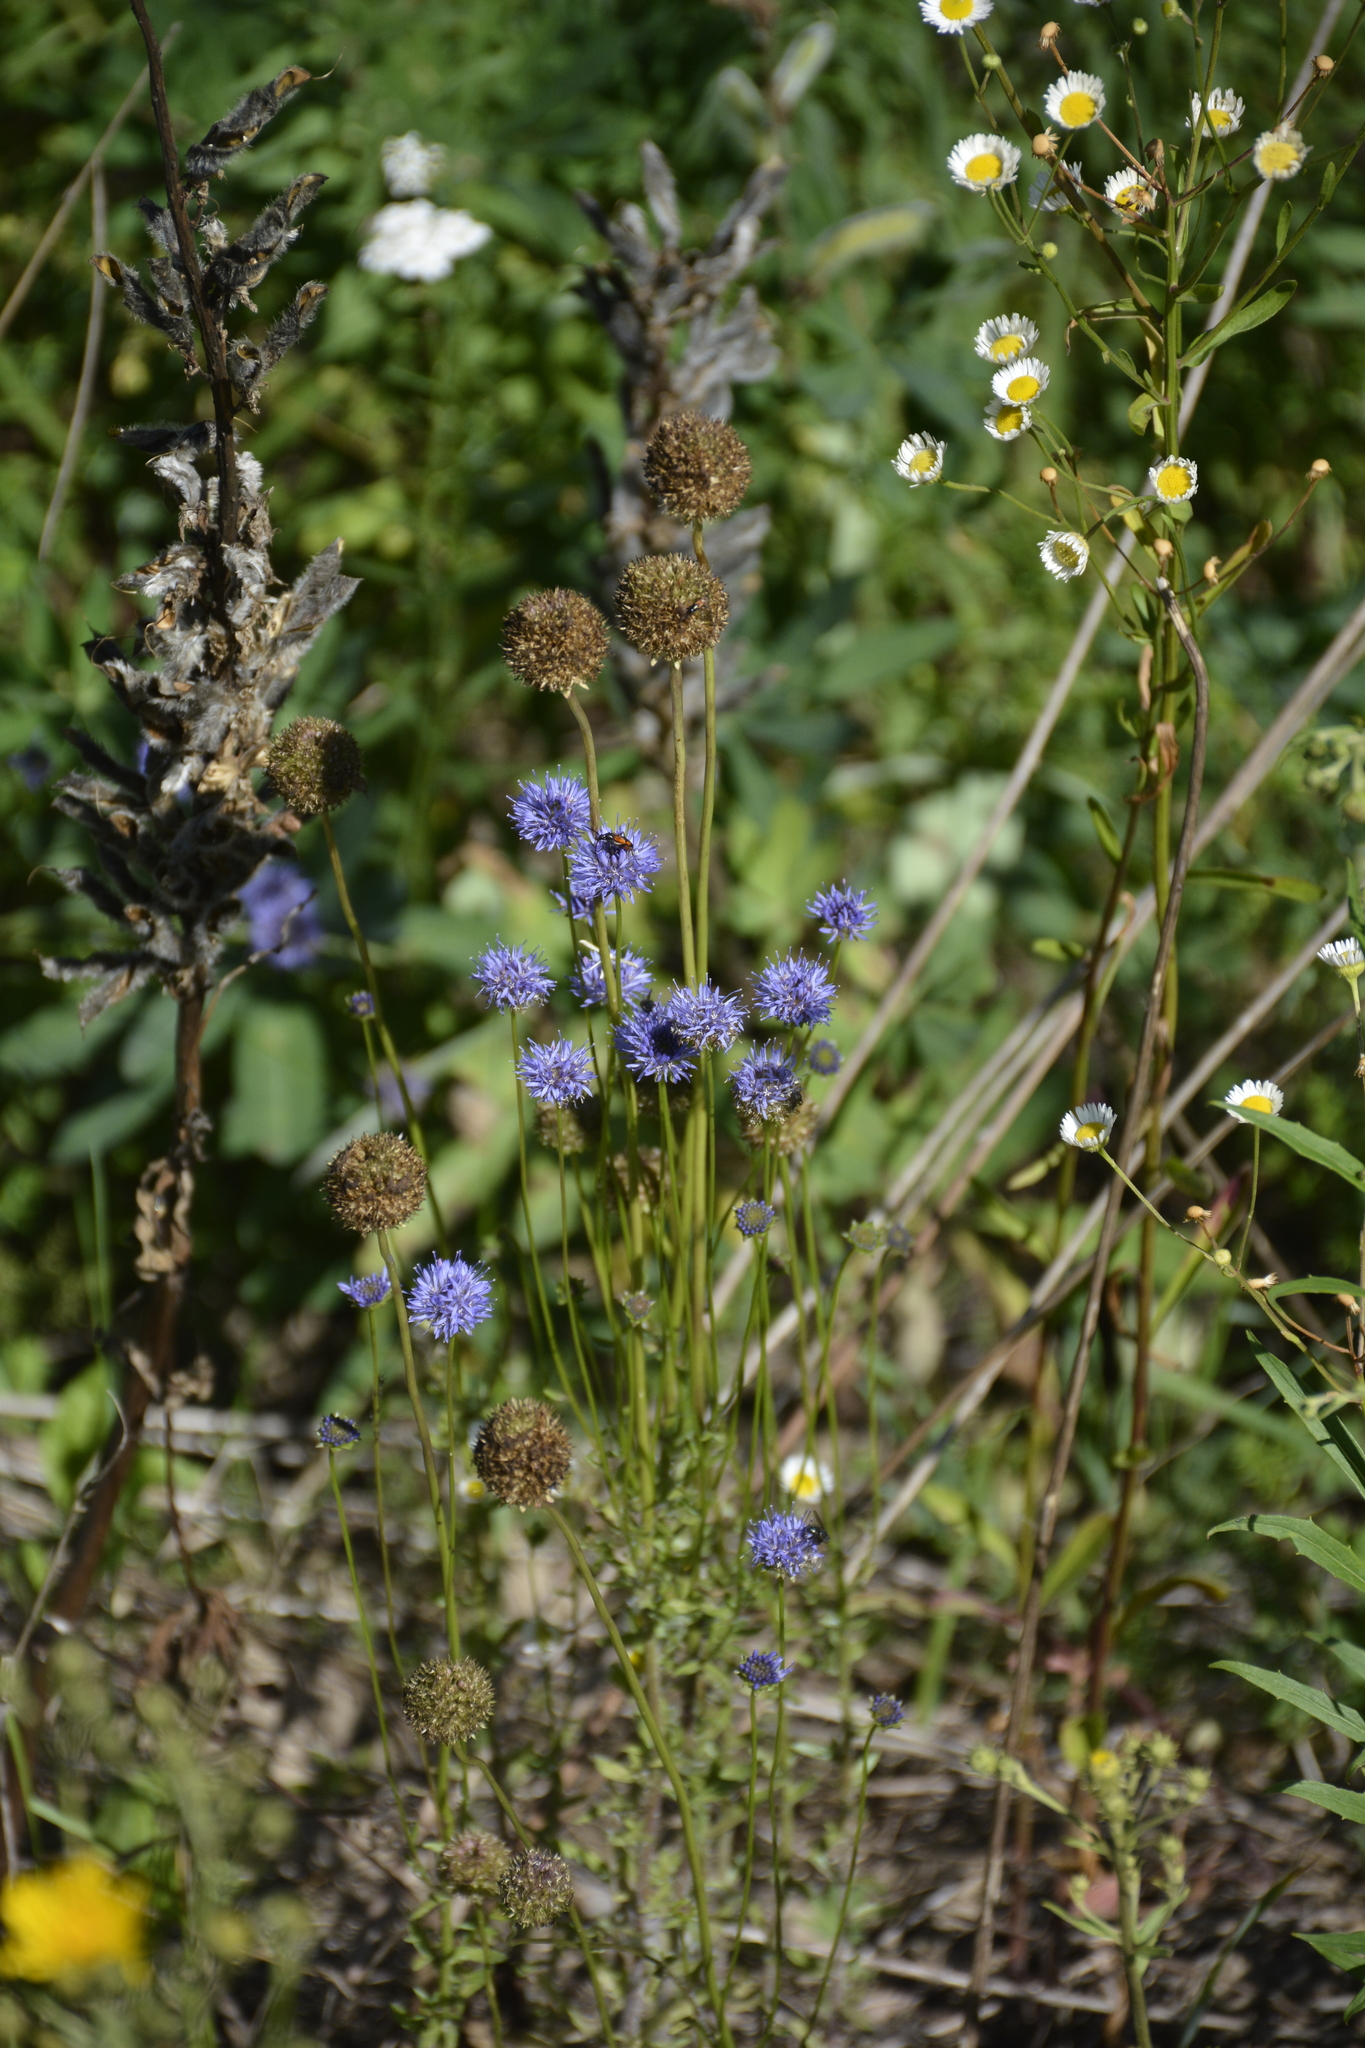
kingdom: Plantae
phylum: Tracheophyta
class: Magnoliopsida
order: Asterales
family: Campanulaceae
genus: Jasione
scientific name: Jasione montana
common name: Sheep's-bit
